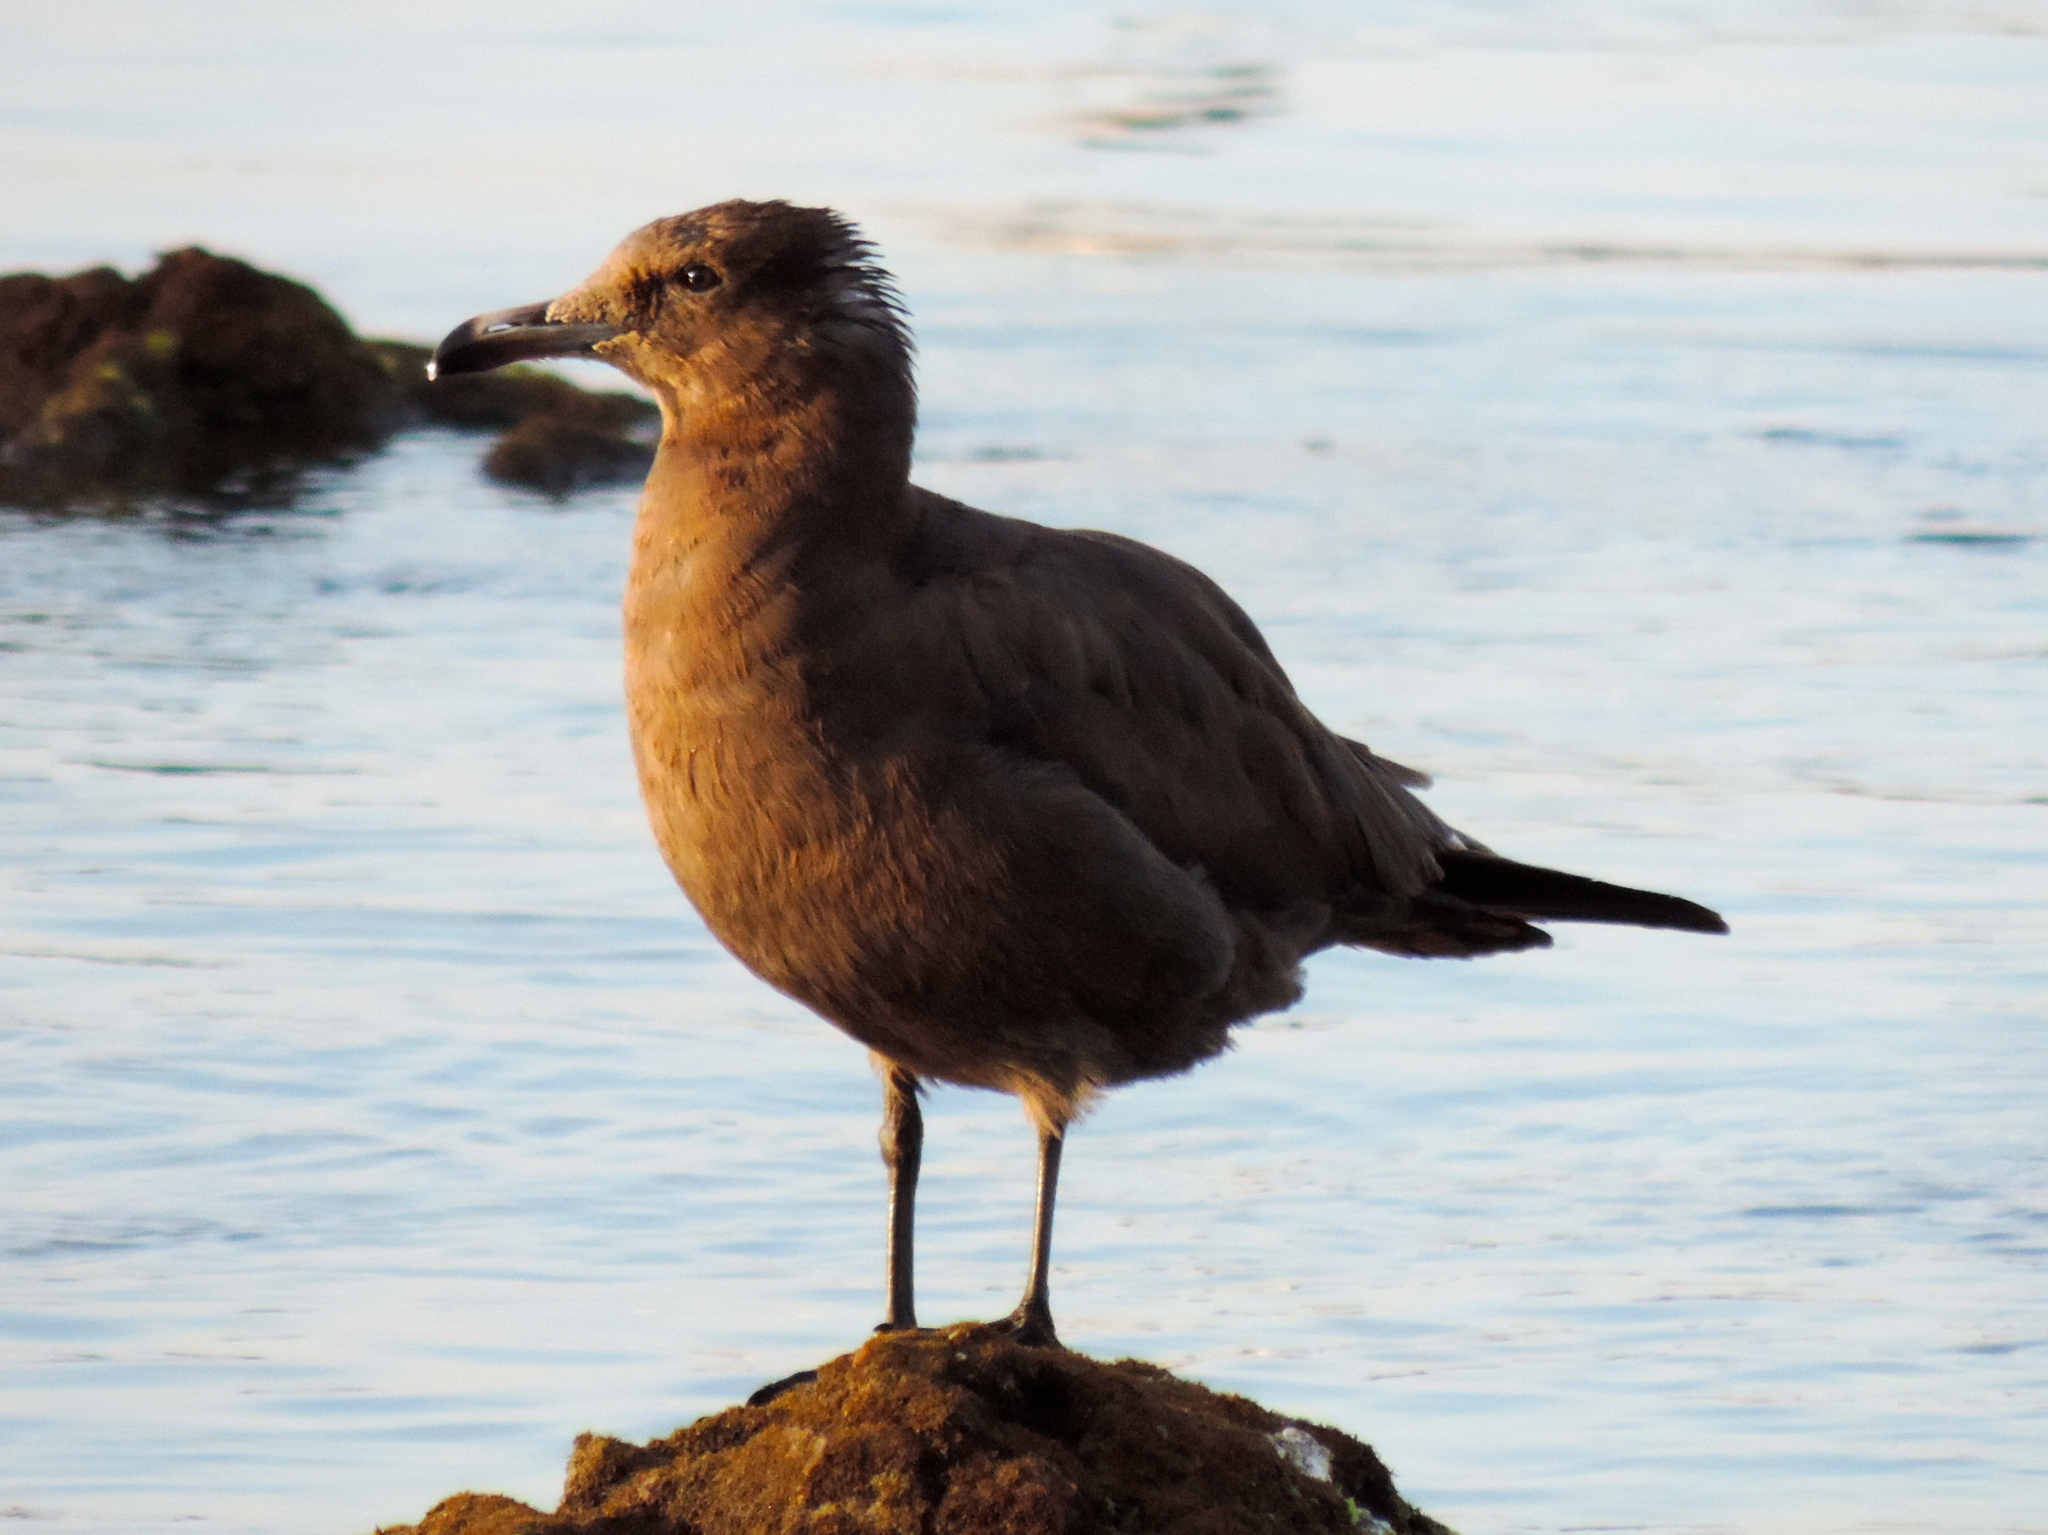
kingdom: Animalia
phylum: Chordata
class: Aves
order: Charadriiformes
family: Laridae
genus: Larus
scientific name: Larus heermanni
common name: Heermann's gull
